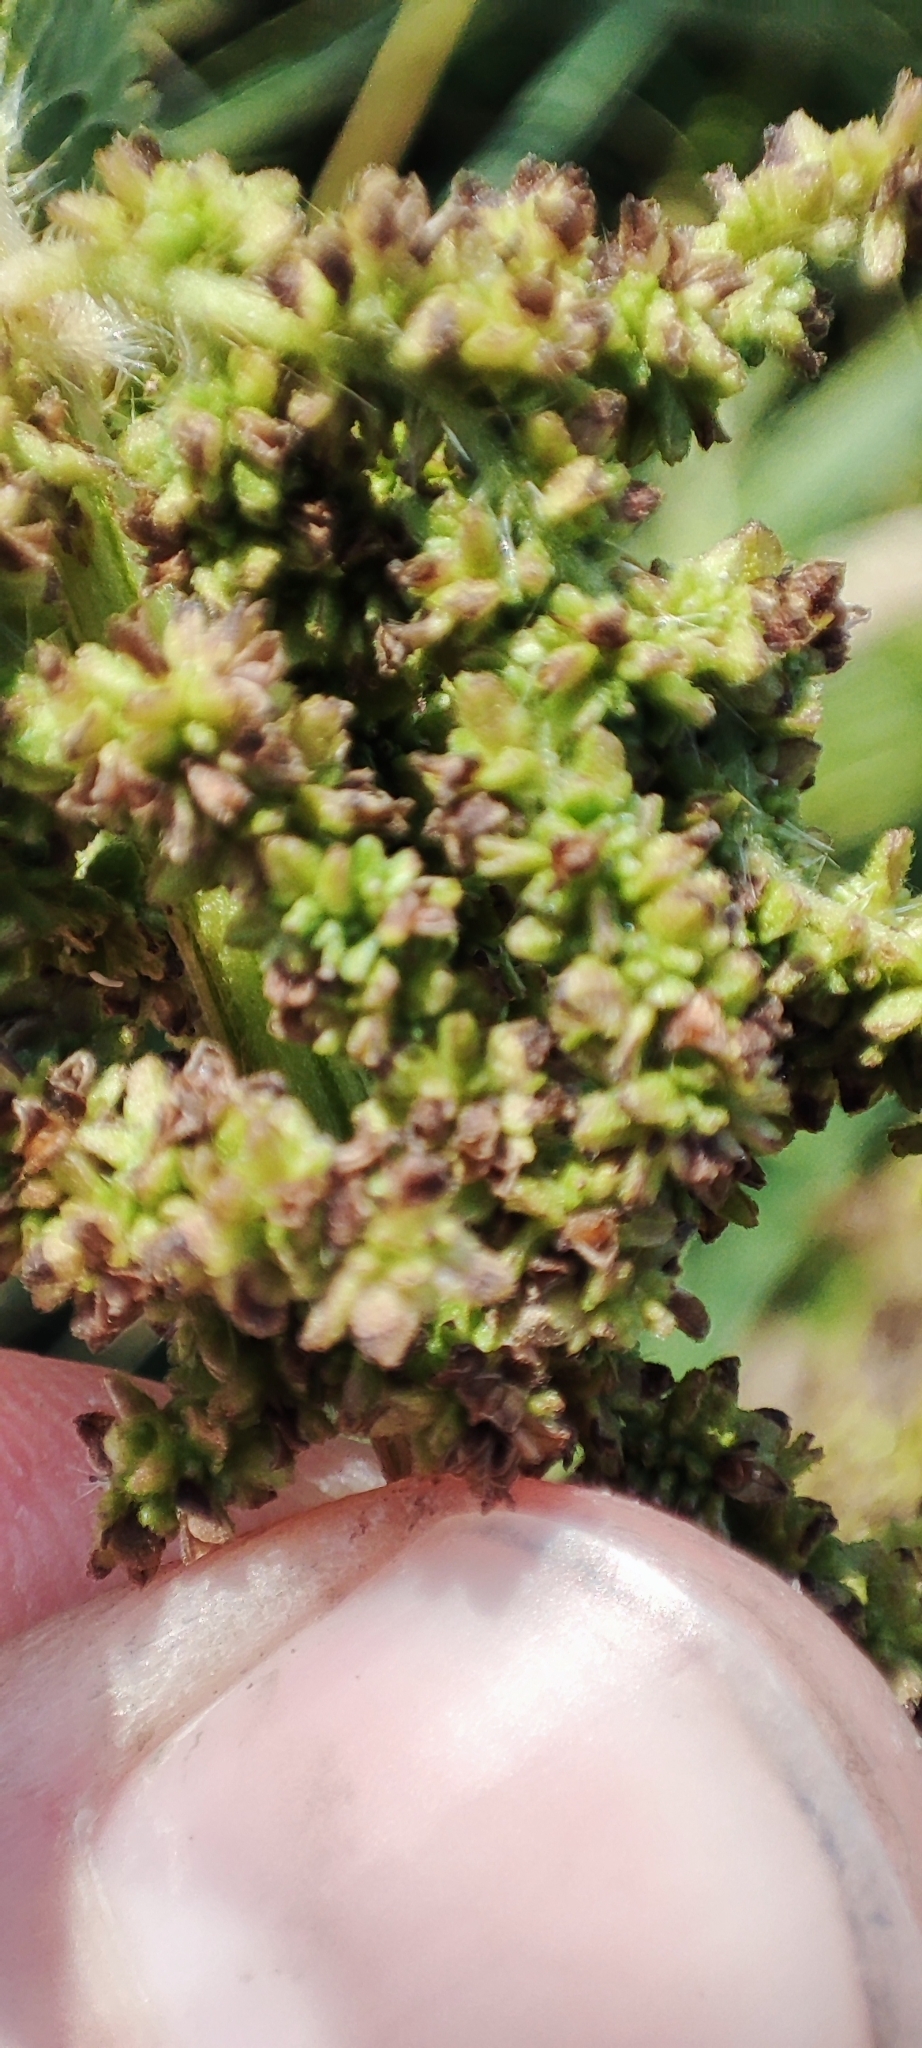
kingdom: Plantae
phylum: Tracheophyta
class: Magnoliopsida
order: Rosales
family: Urticaceae
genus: Urtica
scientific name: Urtica galeopsifolia
